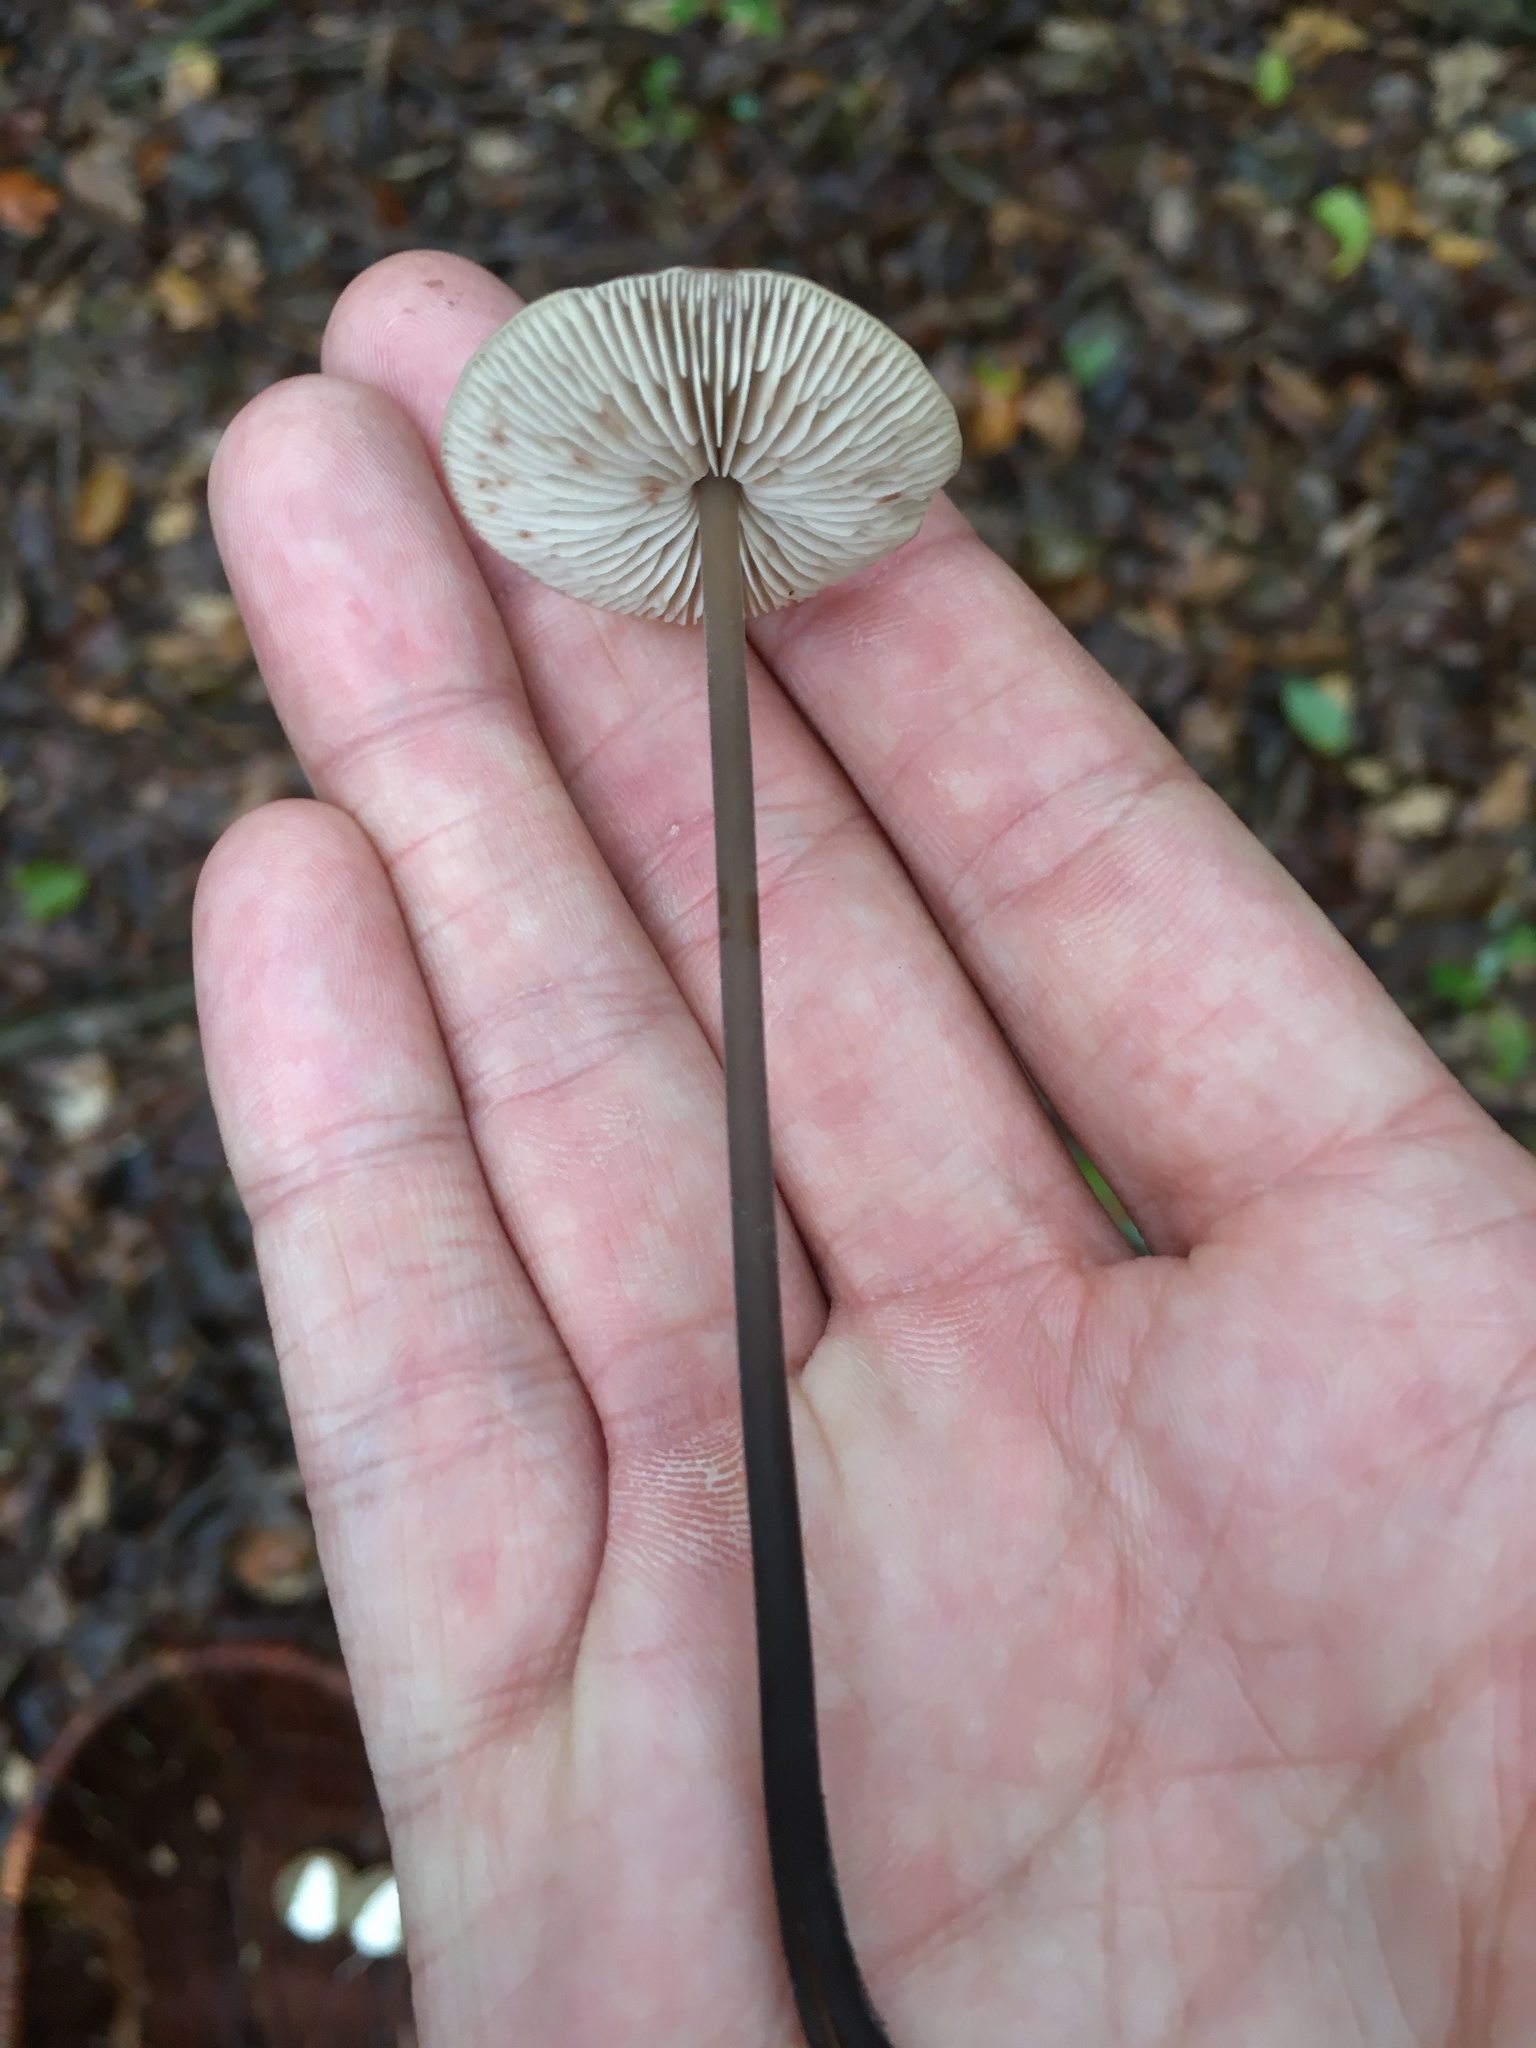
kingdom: Fungi
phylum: Basidiomycota
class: Agaricomycetes
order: Agaricales
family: Omphalotaceae
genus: Mycetinis
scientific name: Mycetinis alliaceus
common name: Garlic parachute
